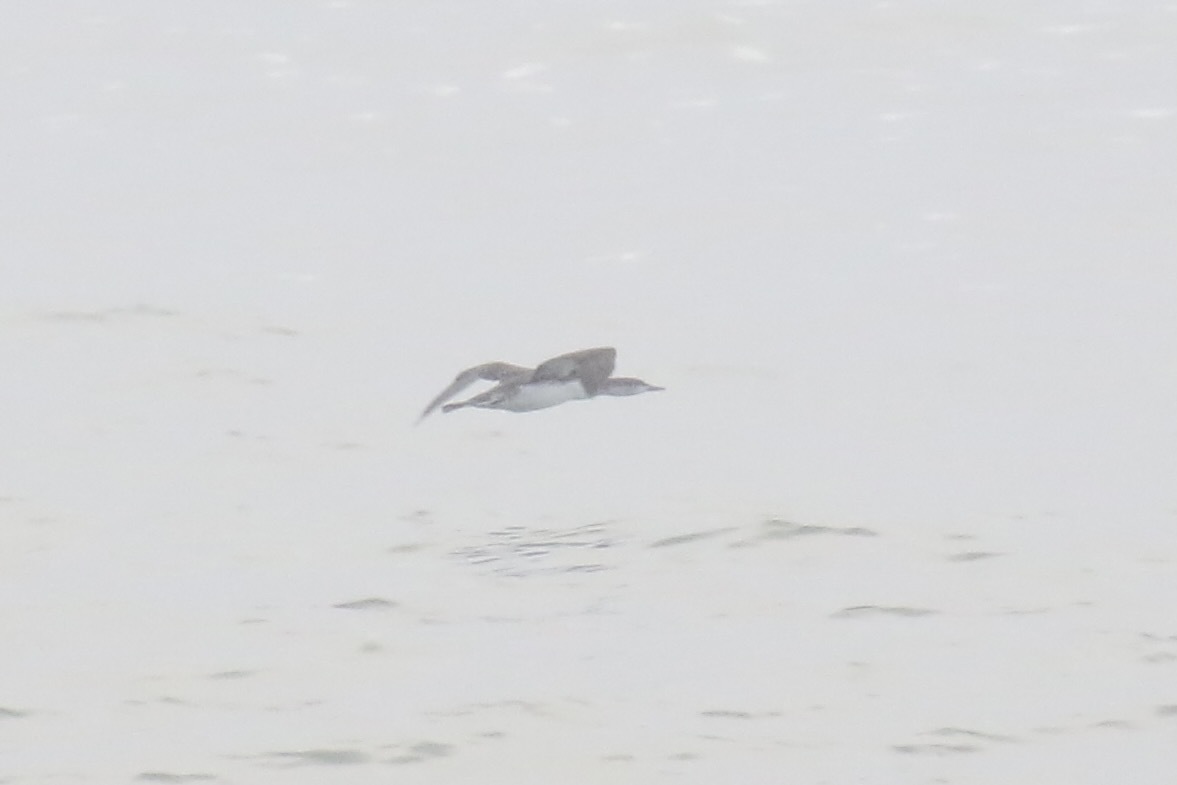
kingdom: Animalia
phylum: Chordata
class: Aves
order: Gaviiformes
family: Gaviidae
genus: Gavia
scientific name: Gavia stellata
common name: Red-throated loon
